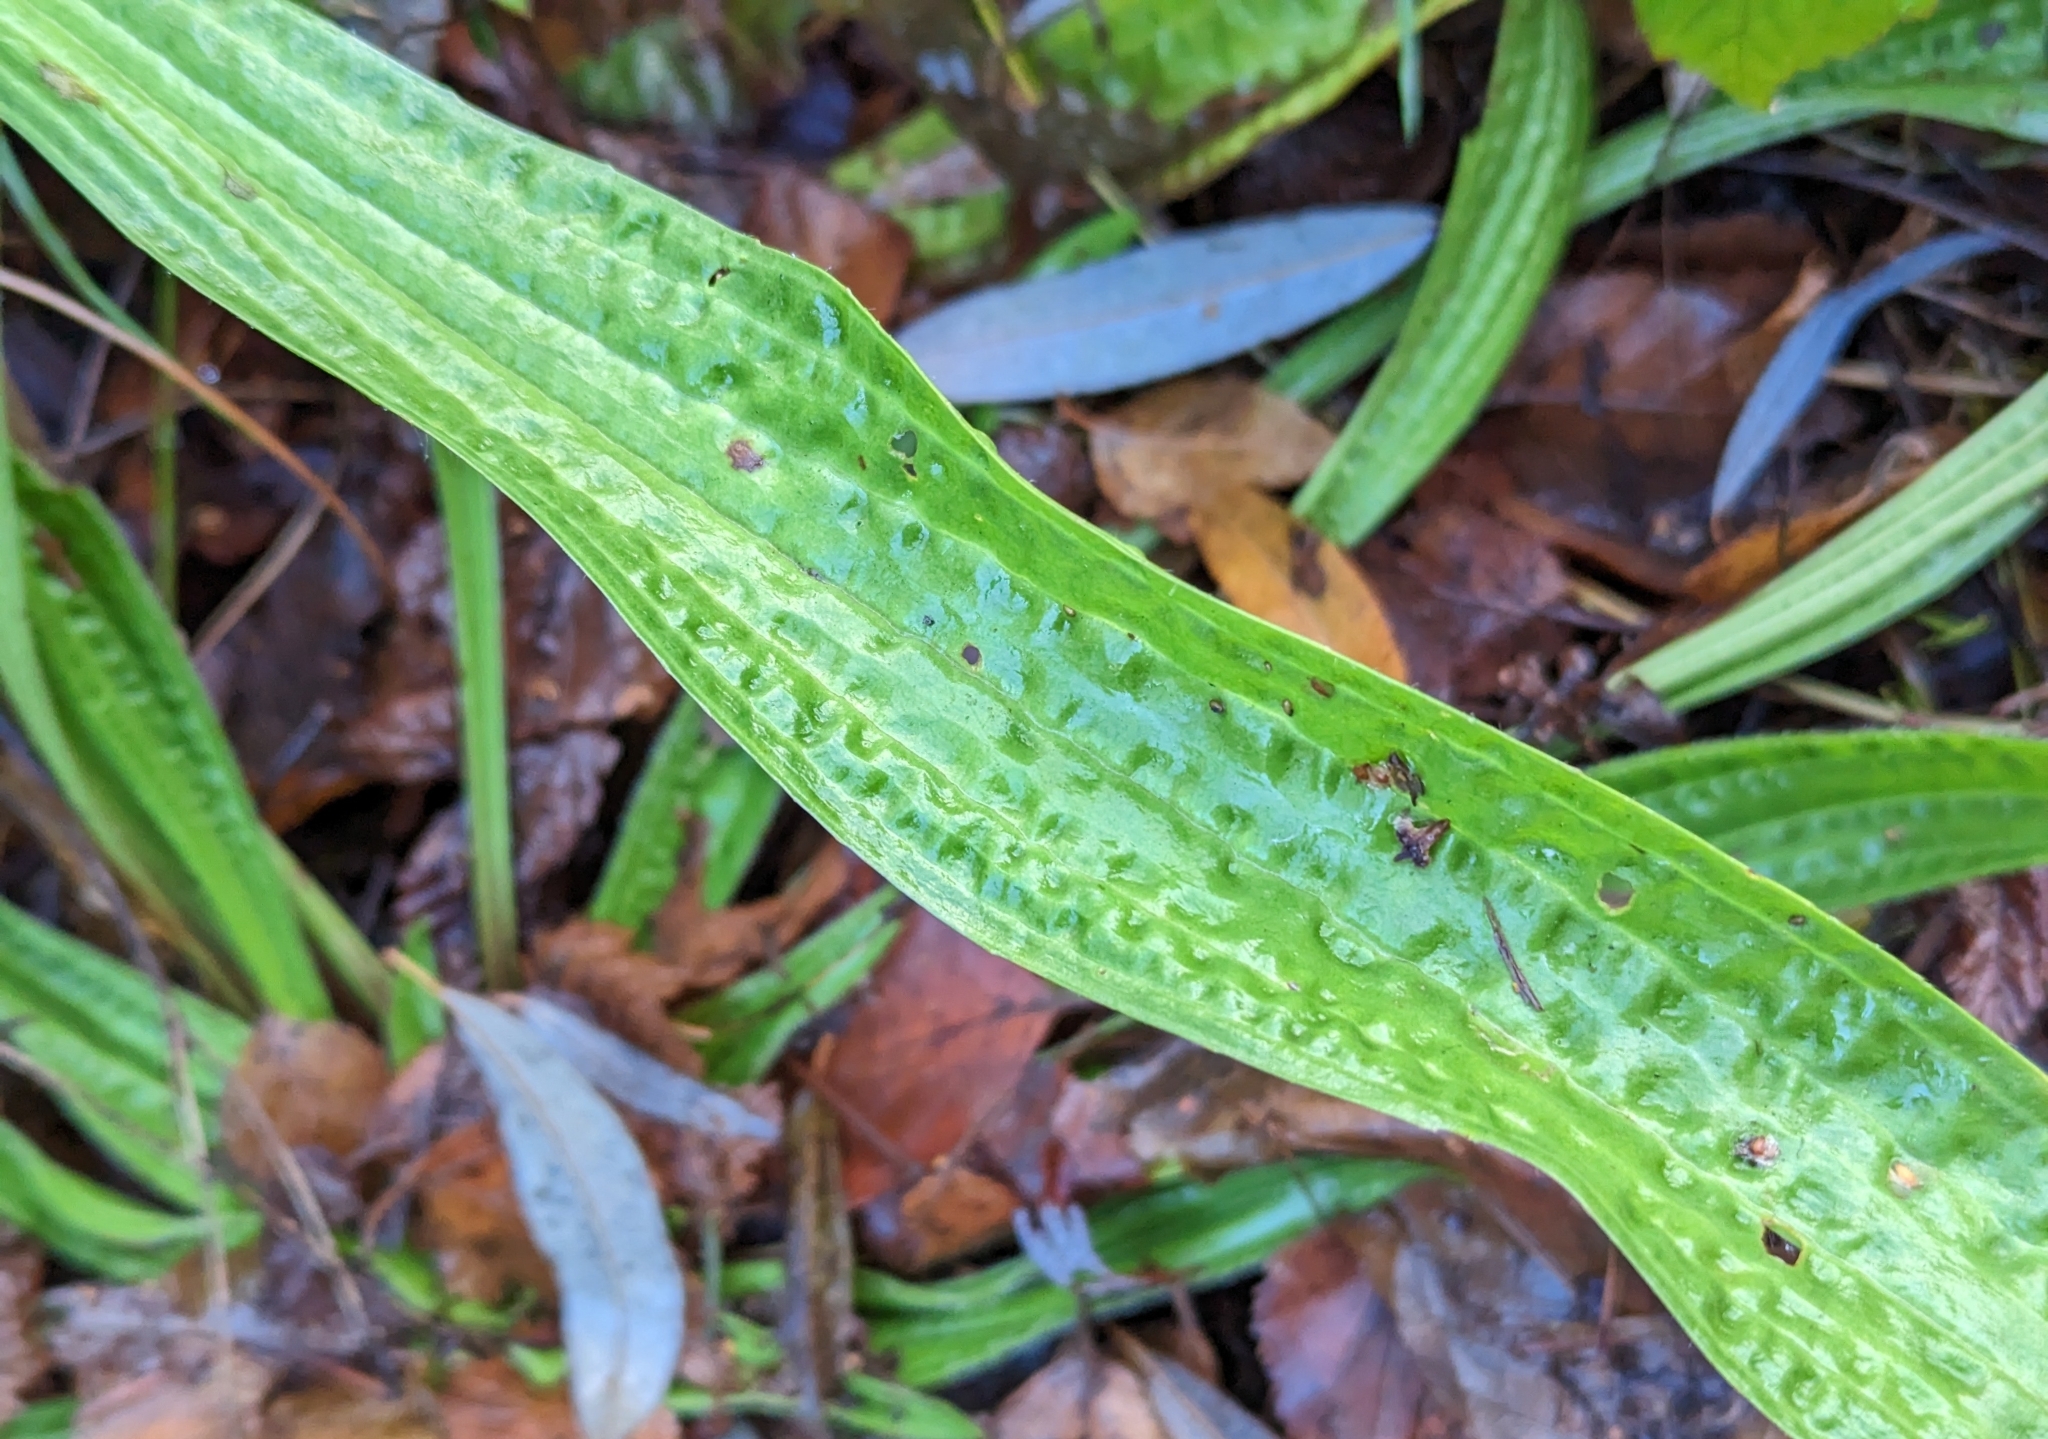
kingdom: Plantae
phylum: Tracheophyta
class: Magnoliopsida
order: Lamiales
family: Plantaginaceae
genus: Plantago
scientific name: Plantago lanceolata
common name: Ribwort plantain
